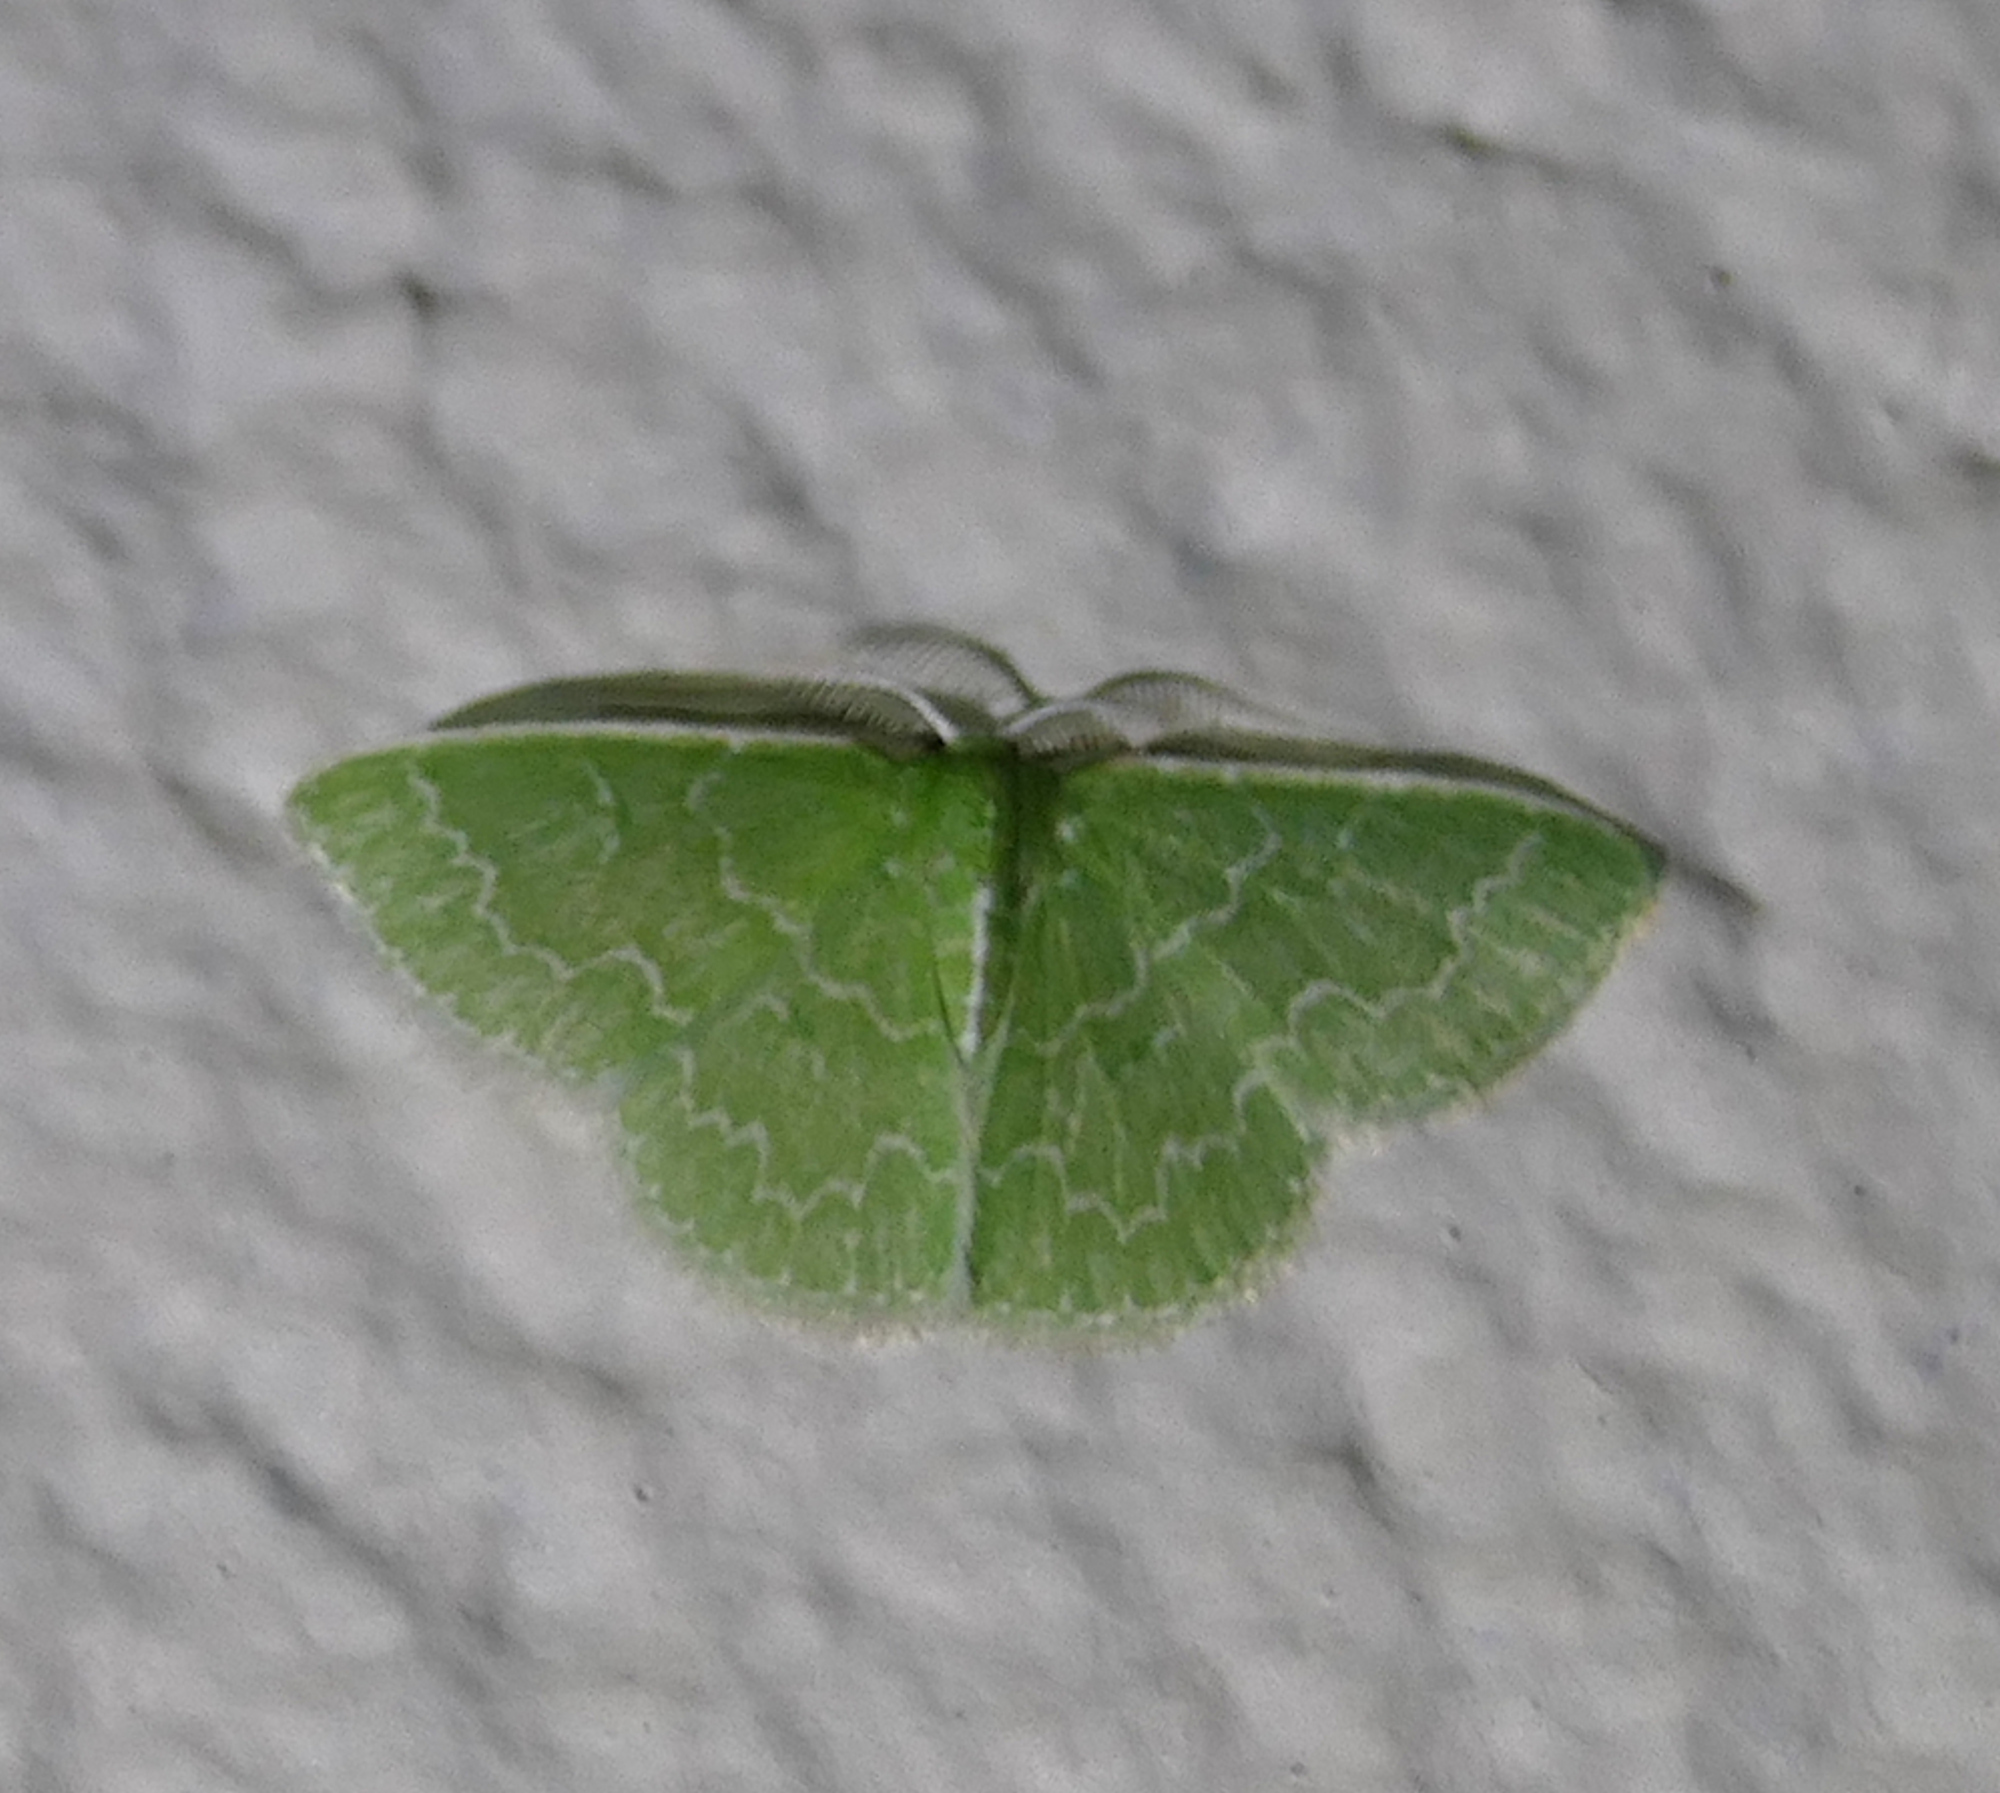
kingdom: Animalia
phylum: Arthropoda
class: Insecta
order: Lepidoptera
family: Geometridae
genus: Synchlora
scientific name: Synchlora frondaria
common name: Southern emerald
